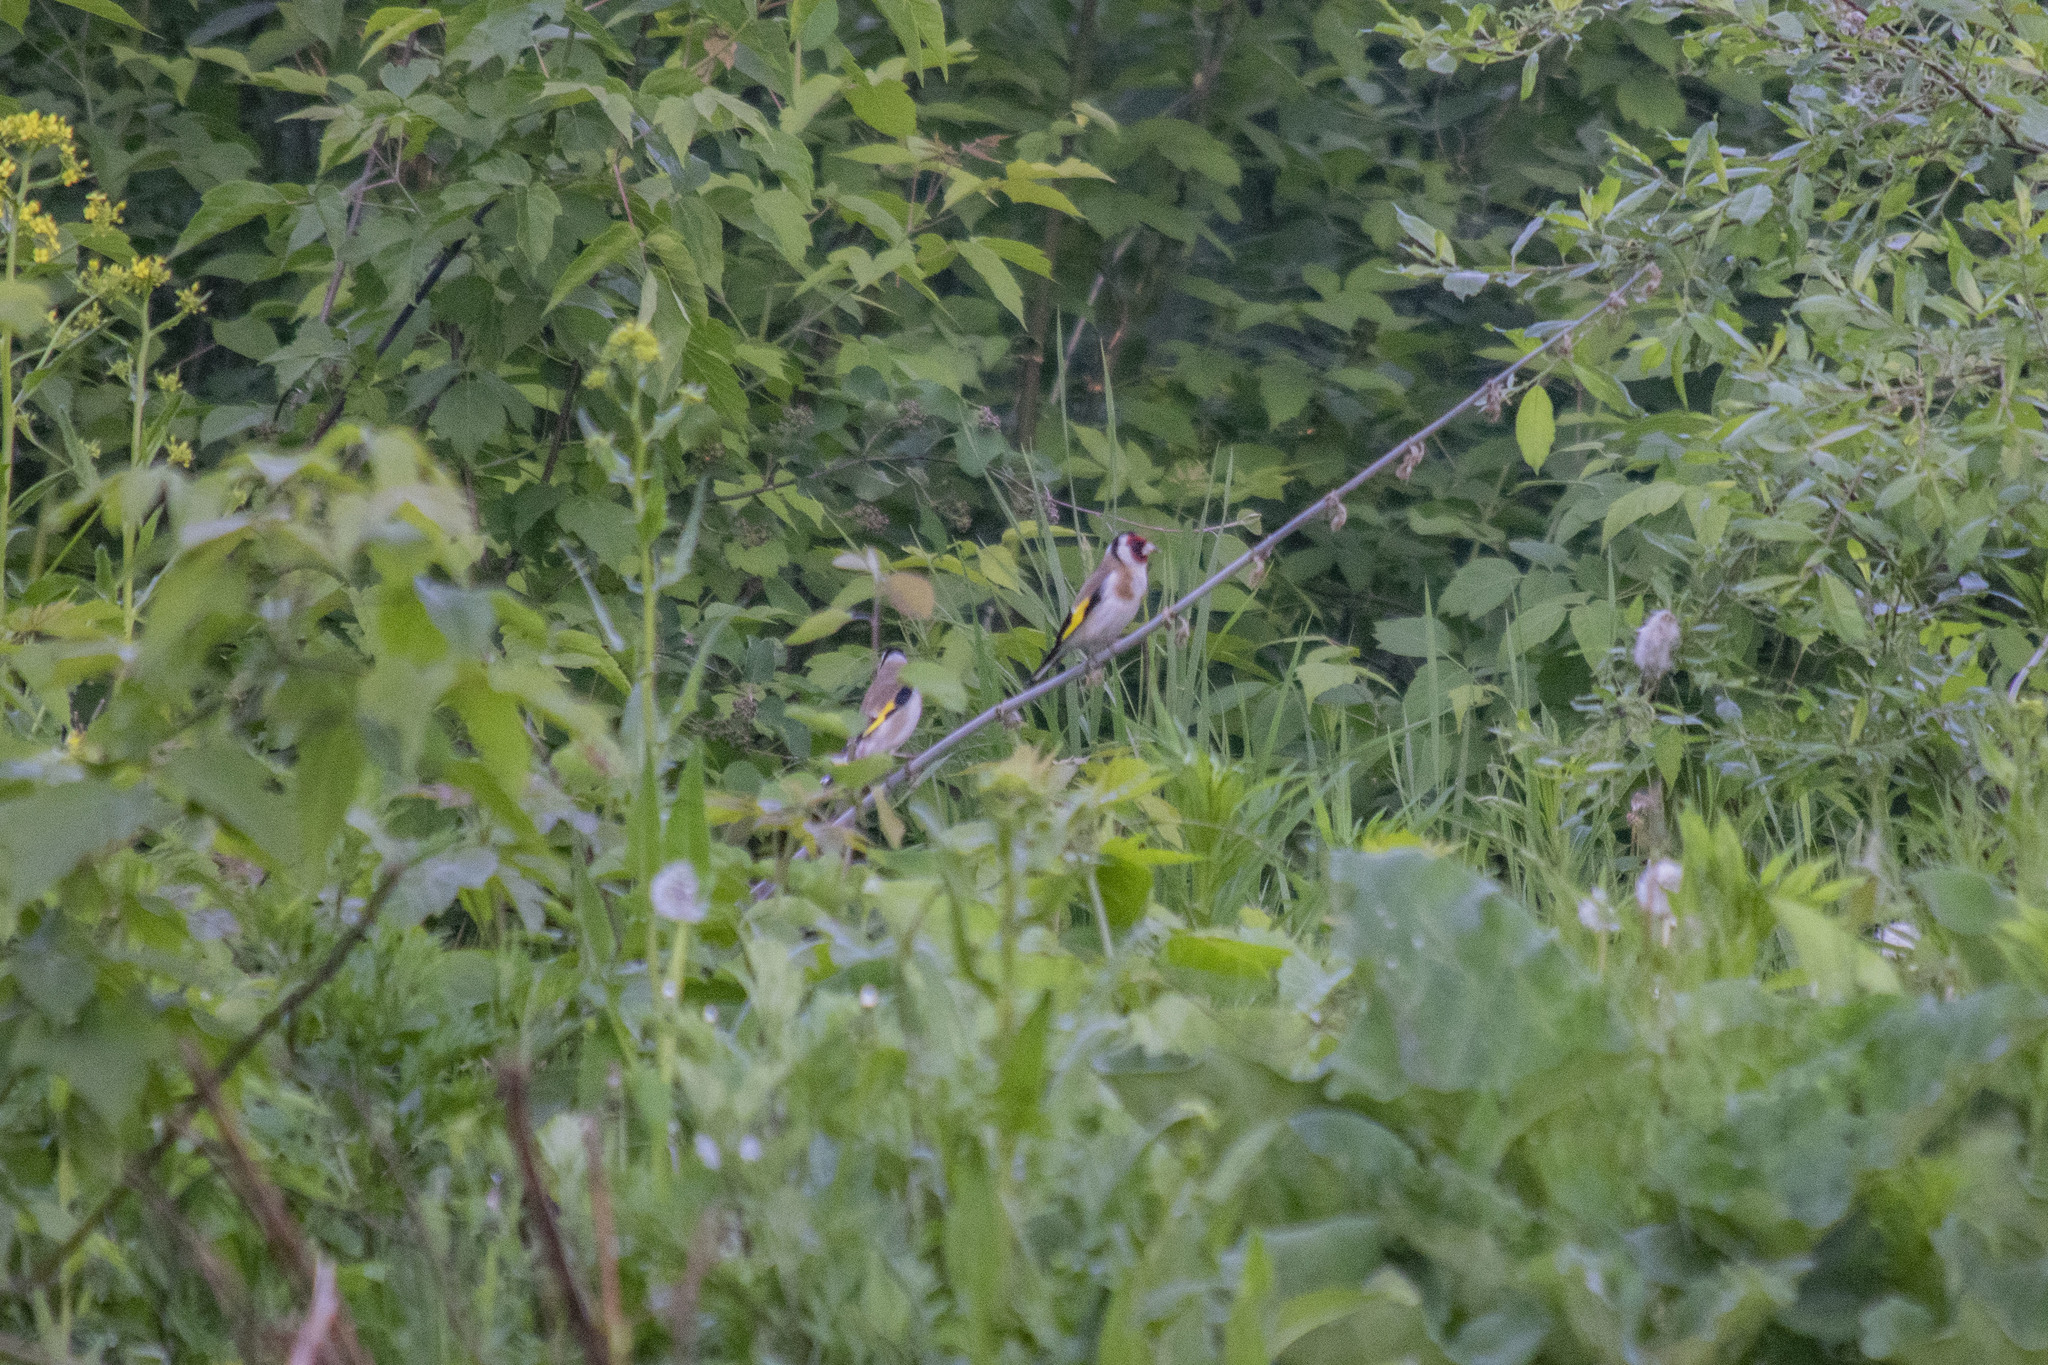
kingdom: Animalia
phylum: Chordata
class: Aves
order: Passeriformes
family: Fringillidae
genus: Carduelis
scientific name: Carduelis carduelis
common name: European goldfinch
